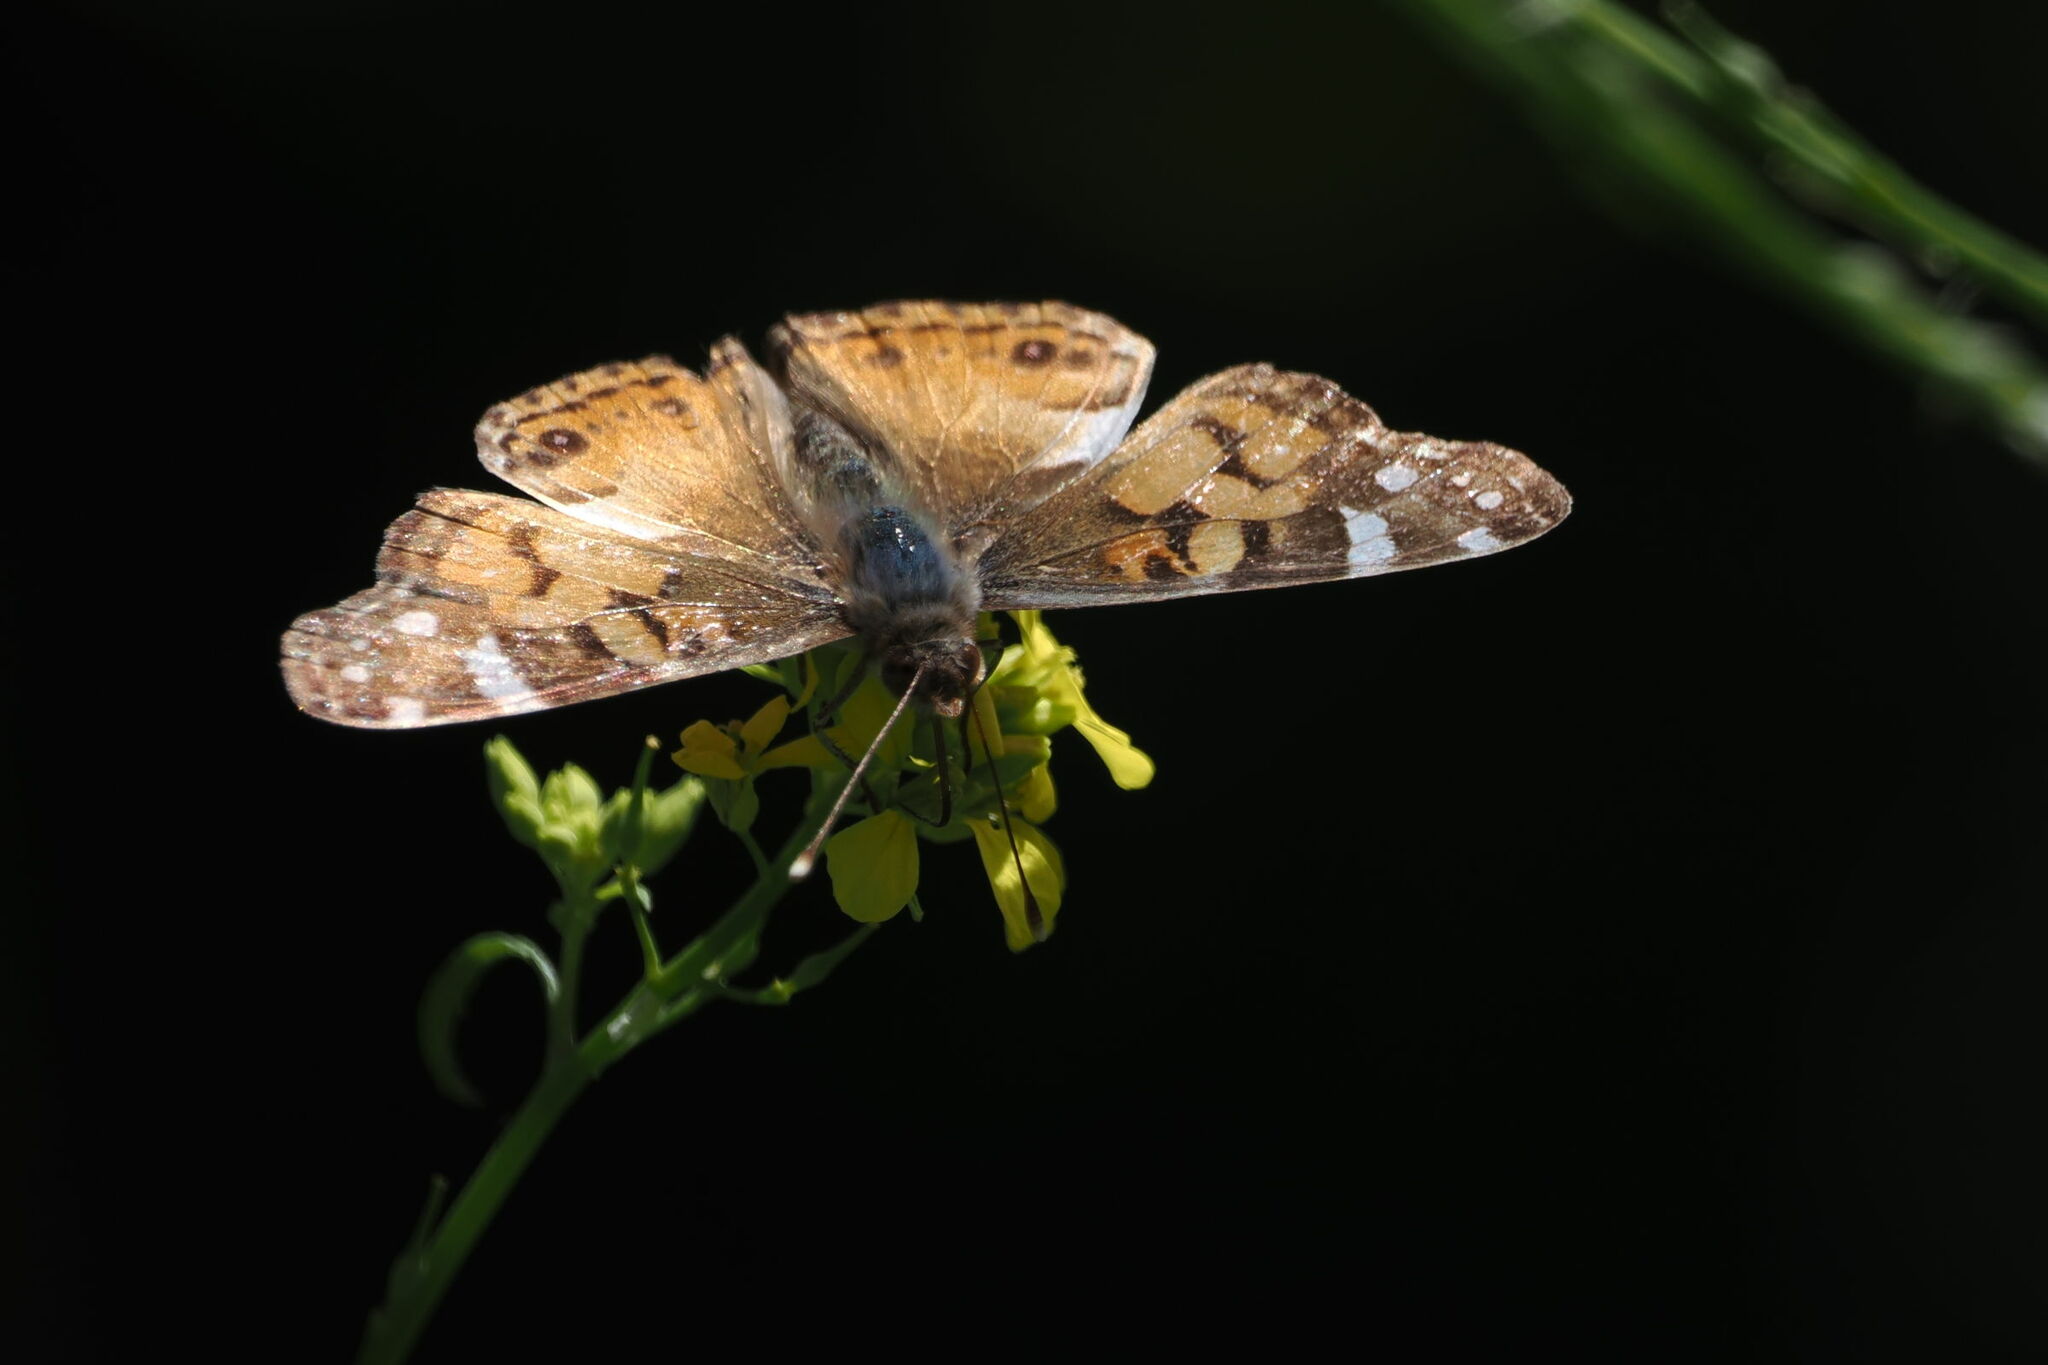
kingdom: Animalia
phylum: Arthropoda
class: Insecta
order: Lepidoptera
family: Nymphalidae
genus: Vanessa
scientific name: Vanessa virginiensis
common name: American lady
